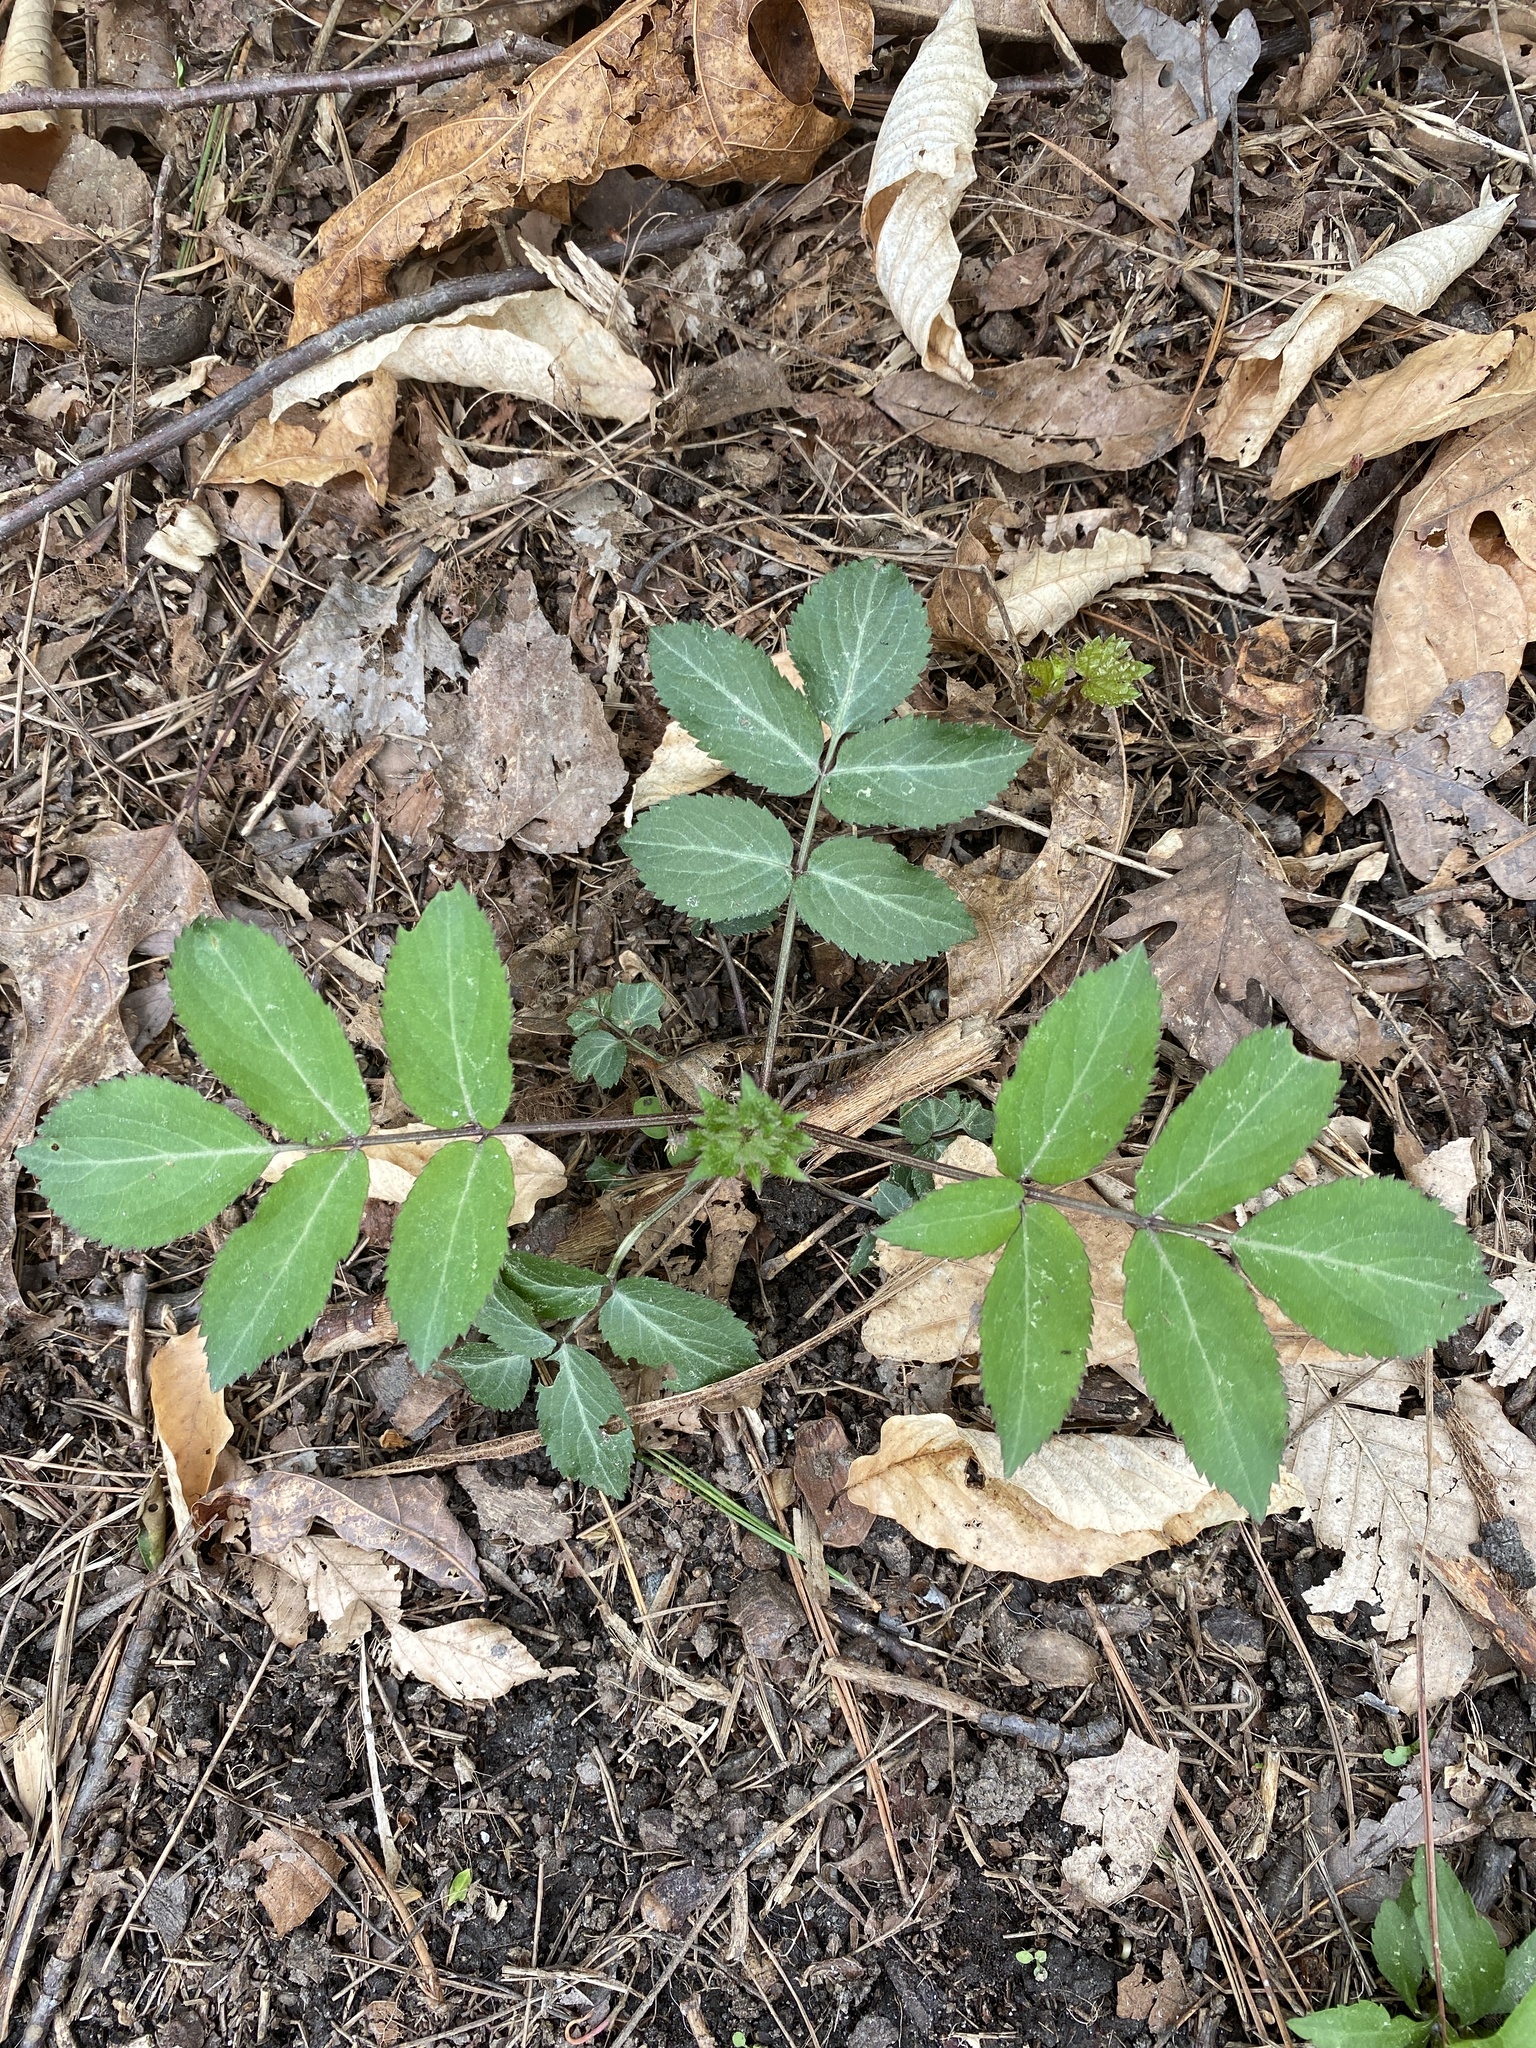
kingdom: Plantae
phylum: Tracheophyta
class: Magnoliopsida
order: Dipsacales
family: Viburnaceae
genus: Sambucus
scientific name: Sambucus canadensis
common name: American elder
